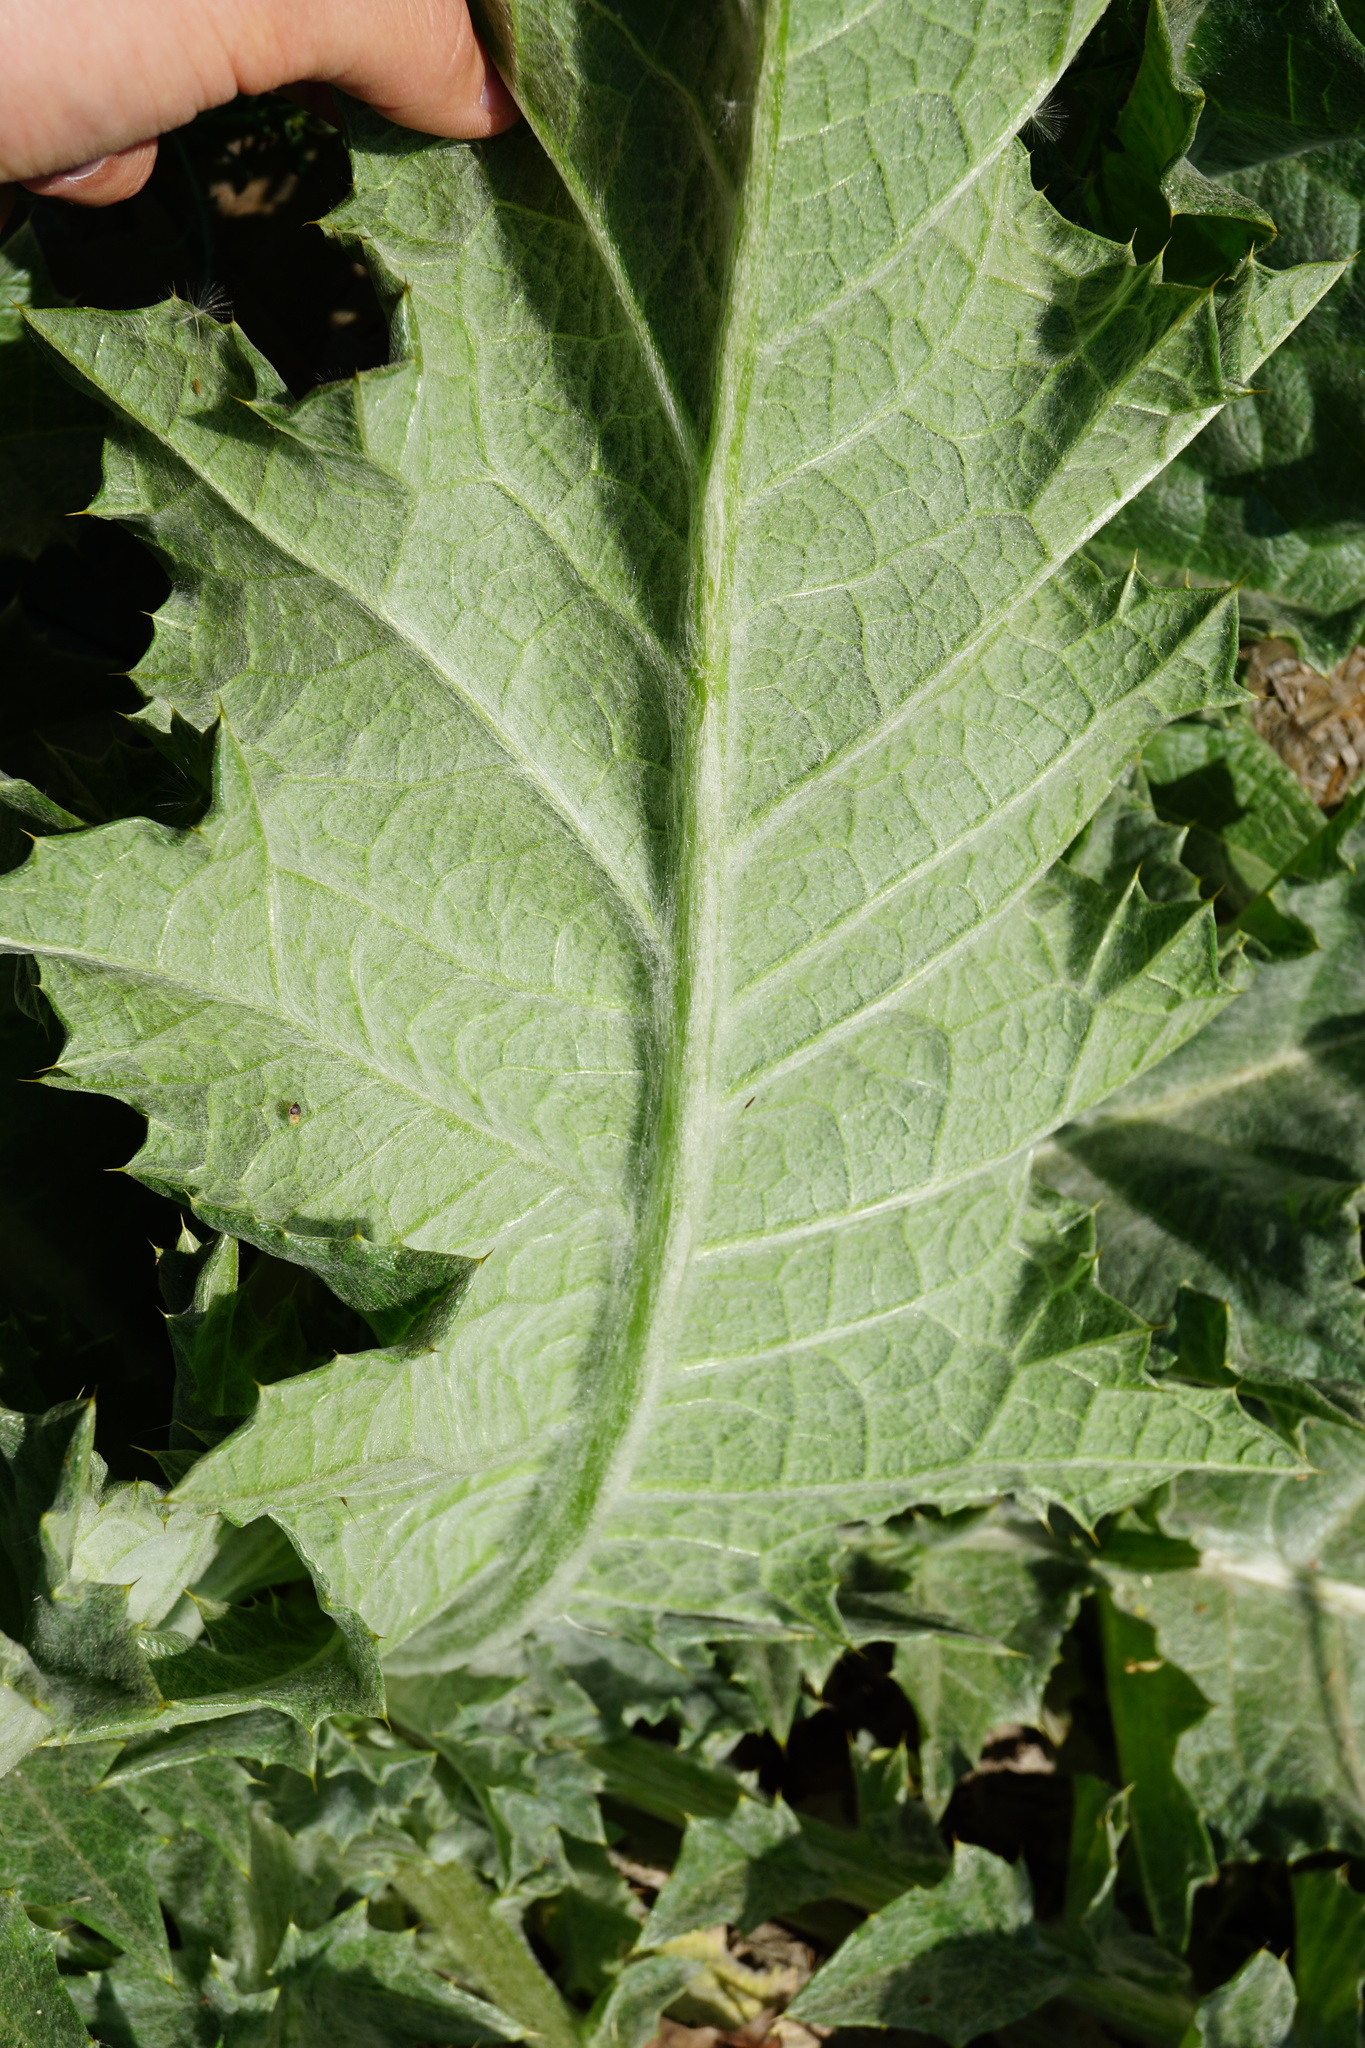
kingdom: Plantae
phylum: Tracheophyta
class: Magnoliopsida
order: Asterales
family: Asteraceae
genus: Onopordum
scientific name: Onopordum acanthium
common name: Scotch thistle
